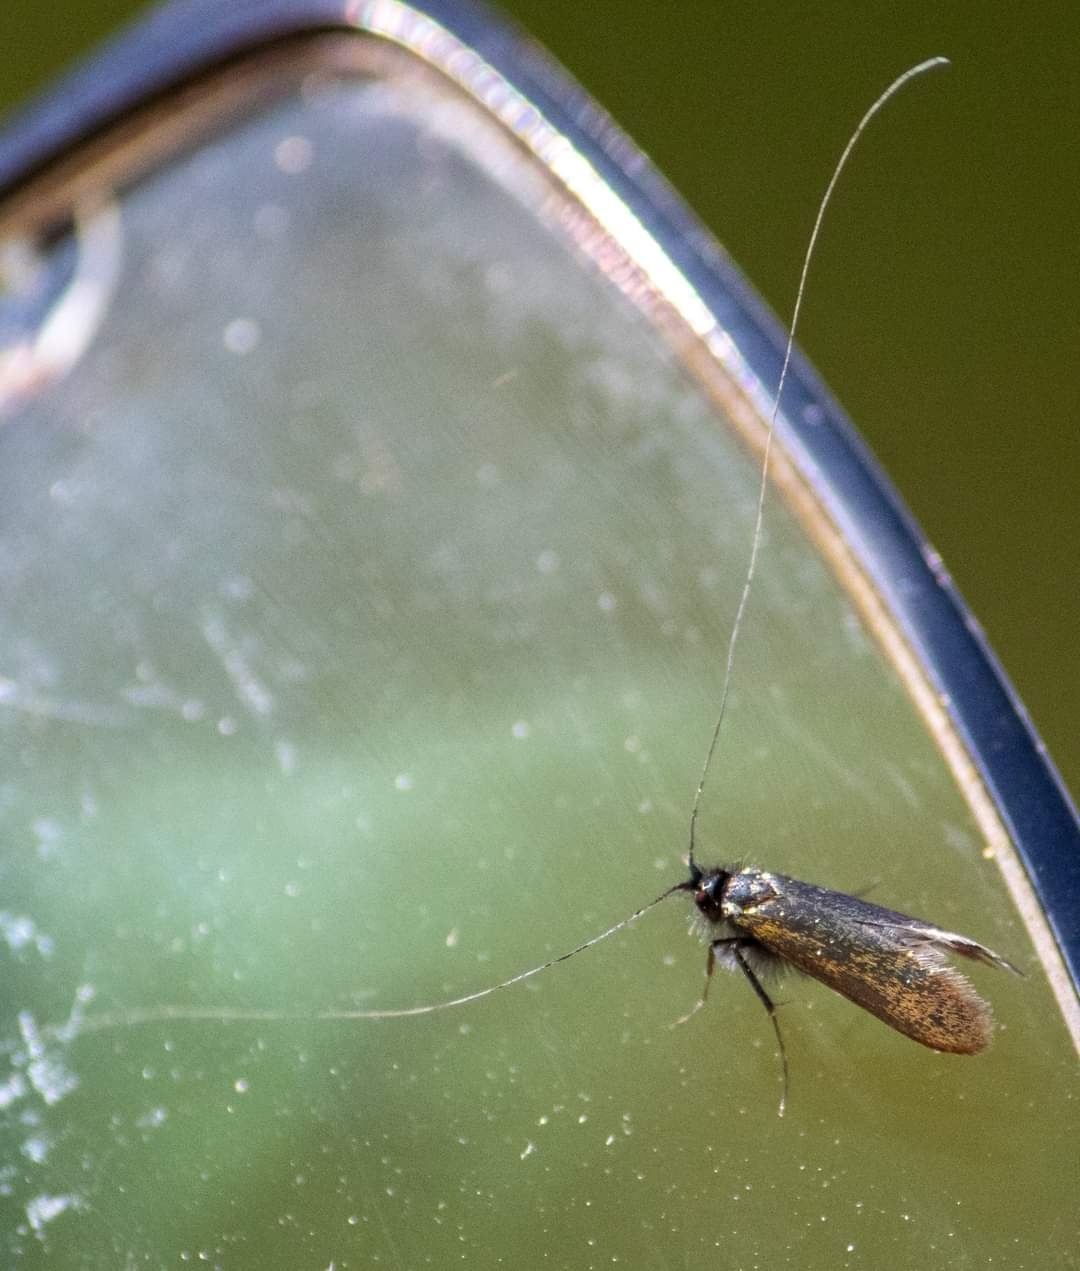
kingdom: Animalia
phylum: Arthropoda
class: Insecta
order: Lepidoptera
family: Adelidae
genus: Adela
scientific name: Adela viridella
